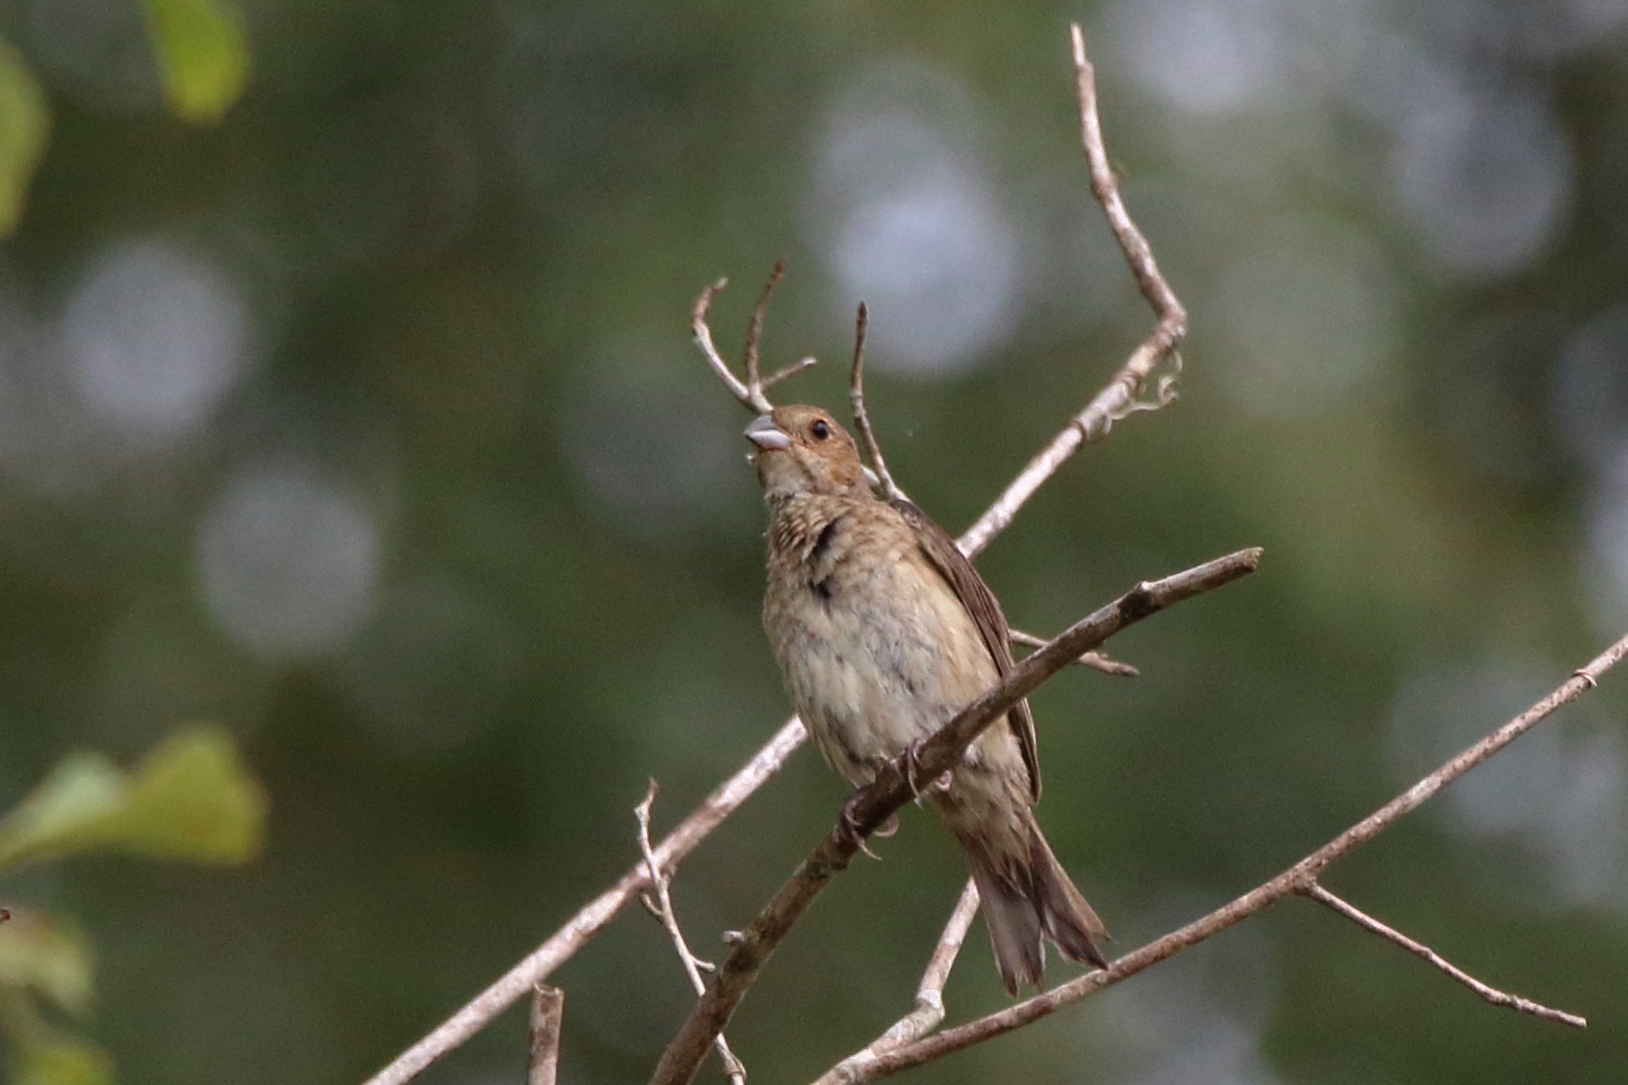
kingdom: Animalia
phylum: Chordata
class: Aves
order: Passeriformes
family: Cardinalidae
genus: Passerina
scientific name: Passerina cyanea
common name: Indigo bunting
